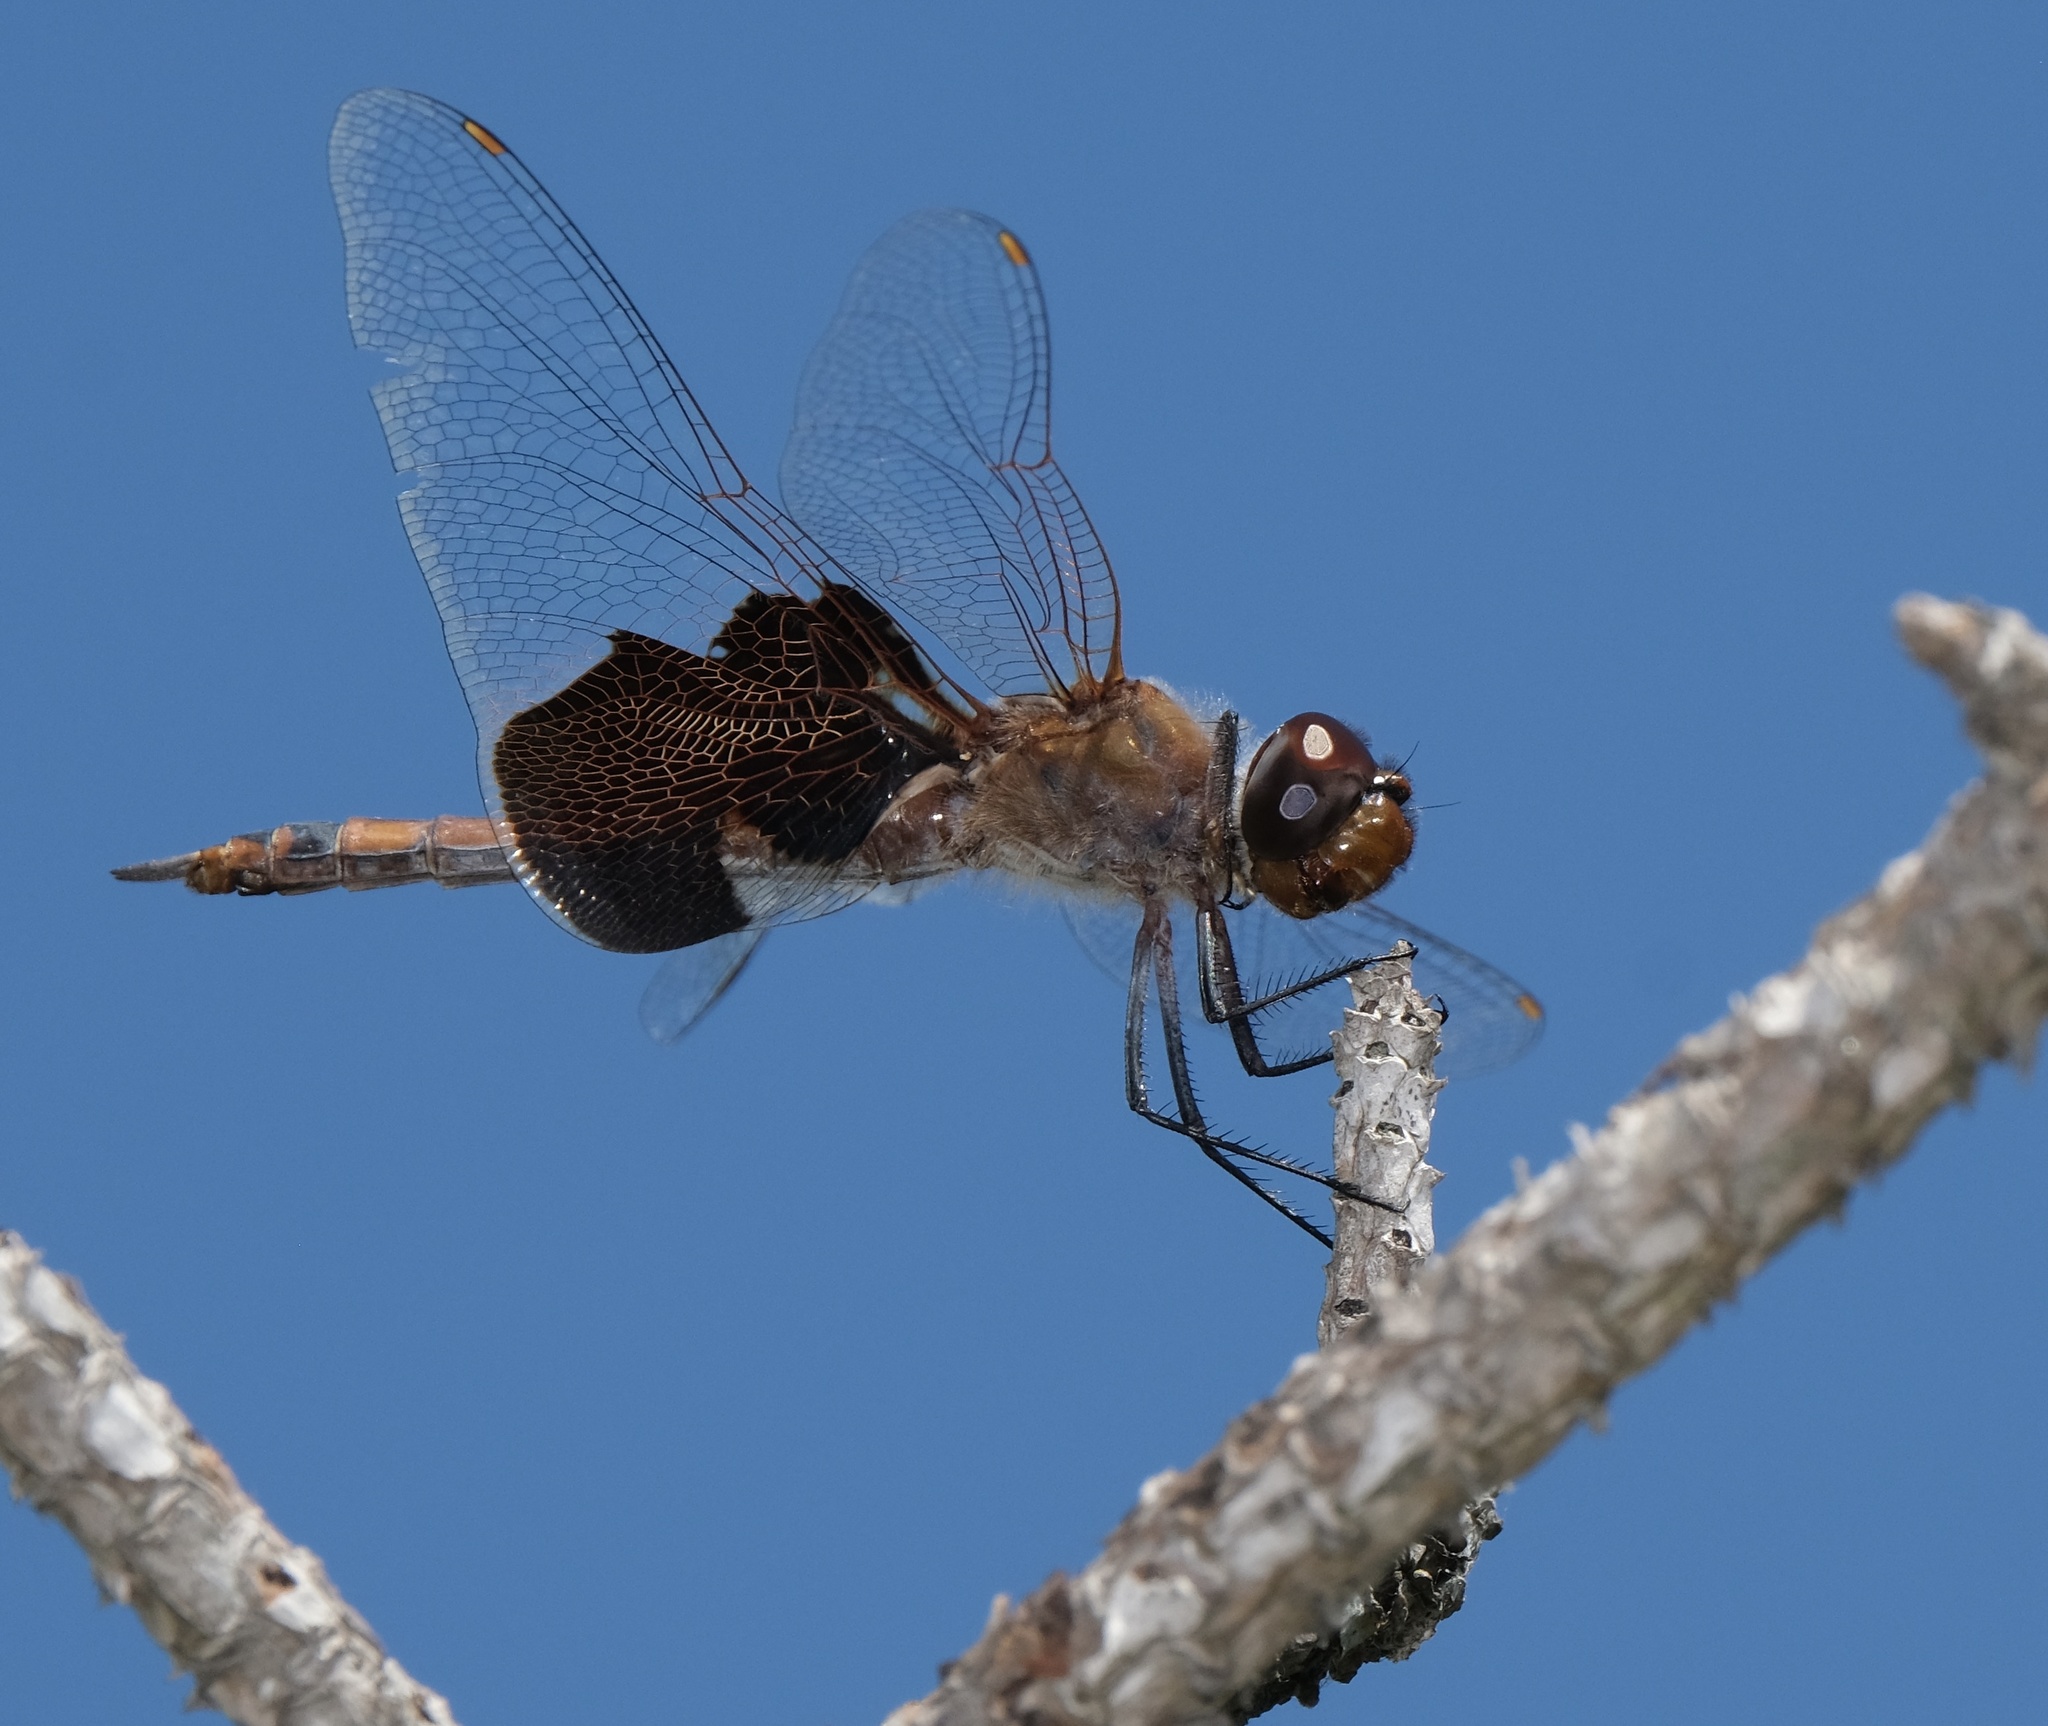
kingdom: Animalia
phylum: Arthropoda
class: Insecta
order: Odonata
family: Libellulidae
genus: Tramea
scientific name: Tramea carolina
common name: Carolina saddlebags
